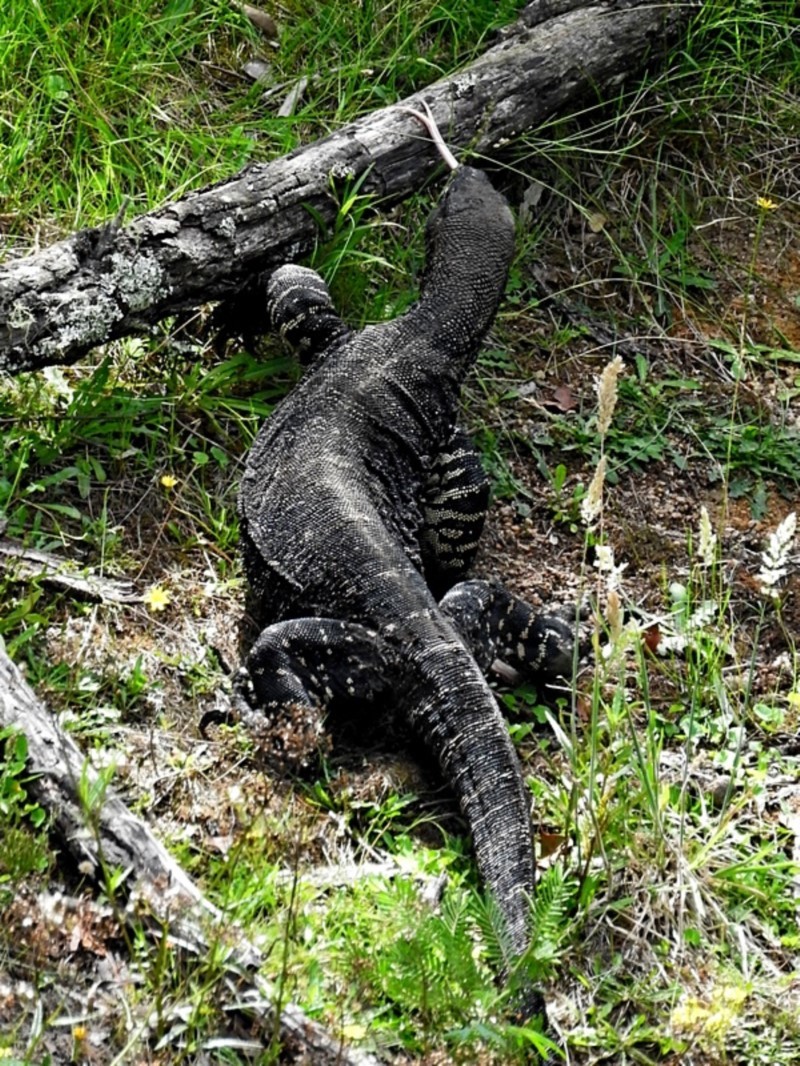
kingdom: Animalia
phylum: Chordata
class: Squamata
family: Varanidae
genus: Varanus
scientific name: Varanus varius
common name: Lace monitor
